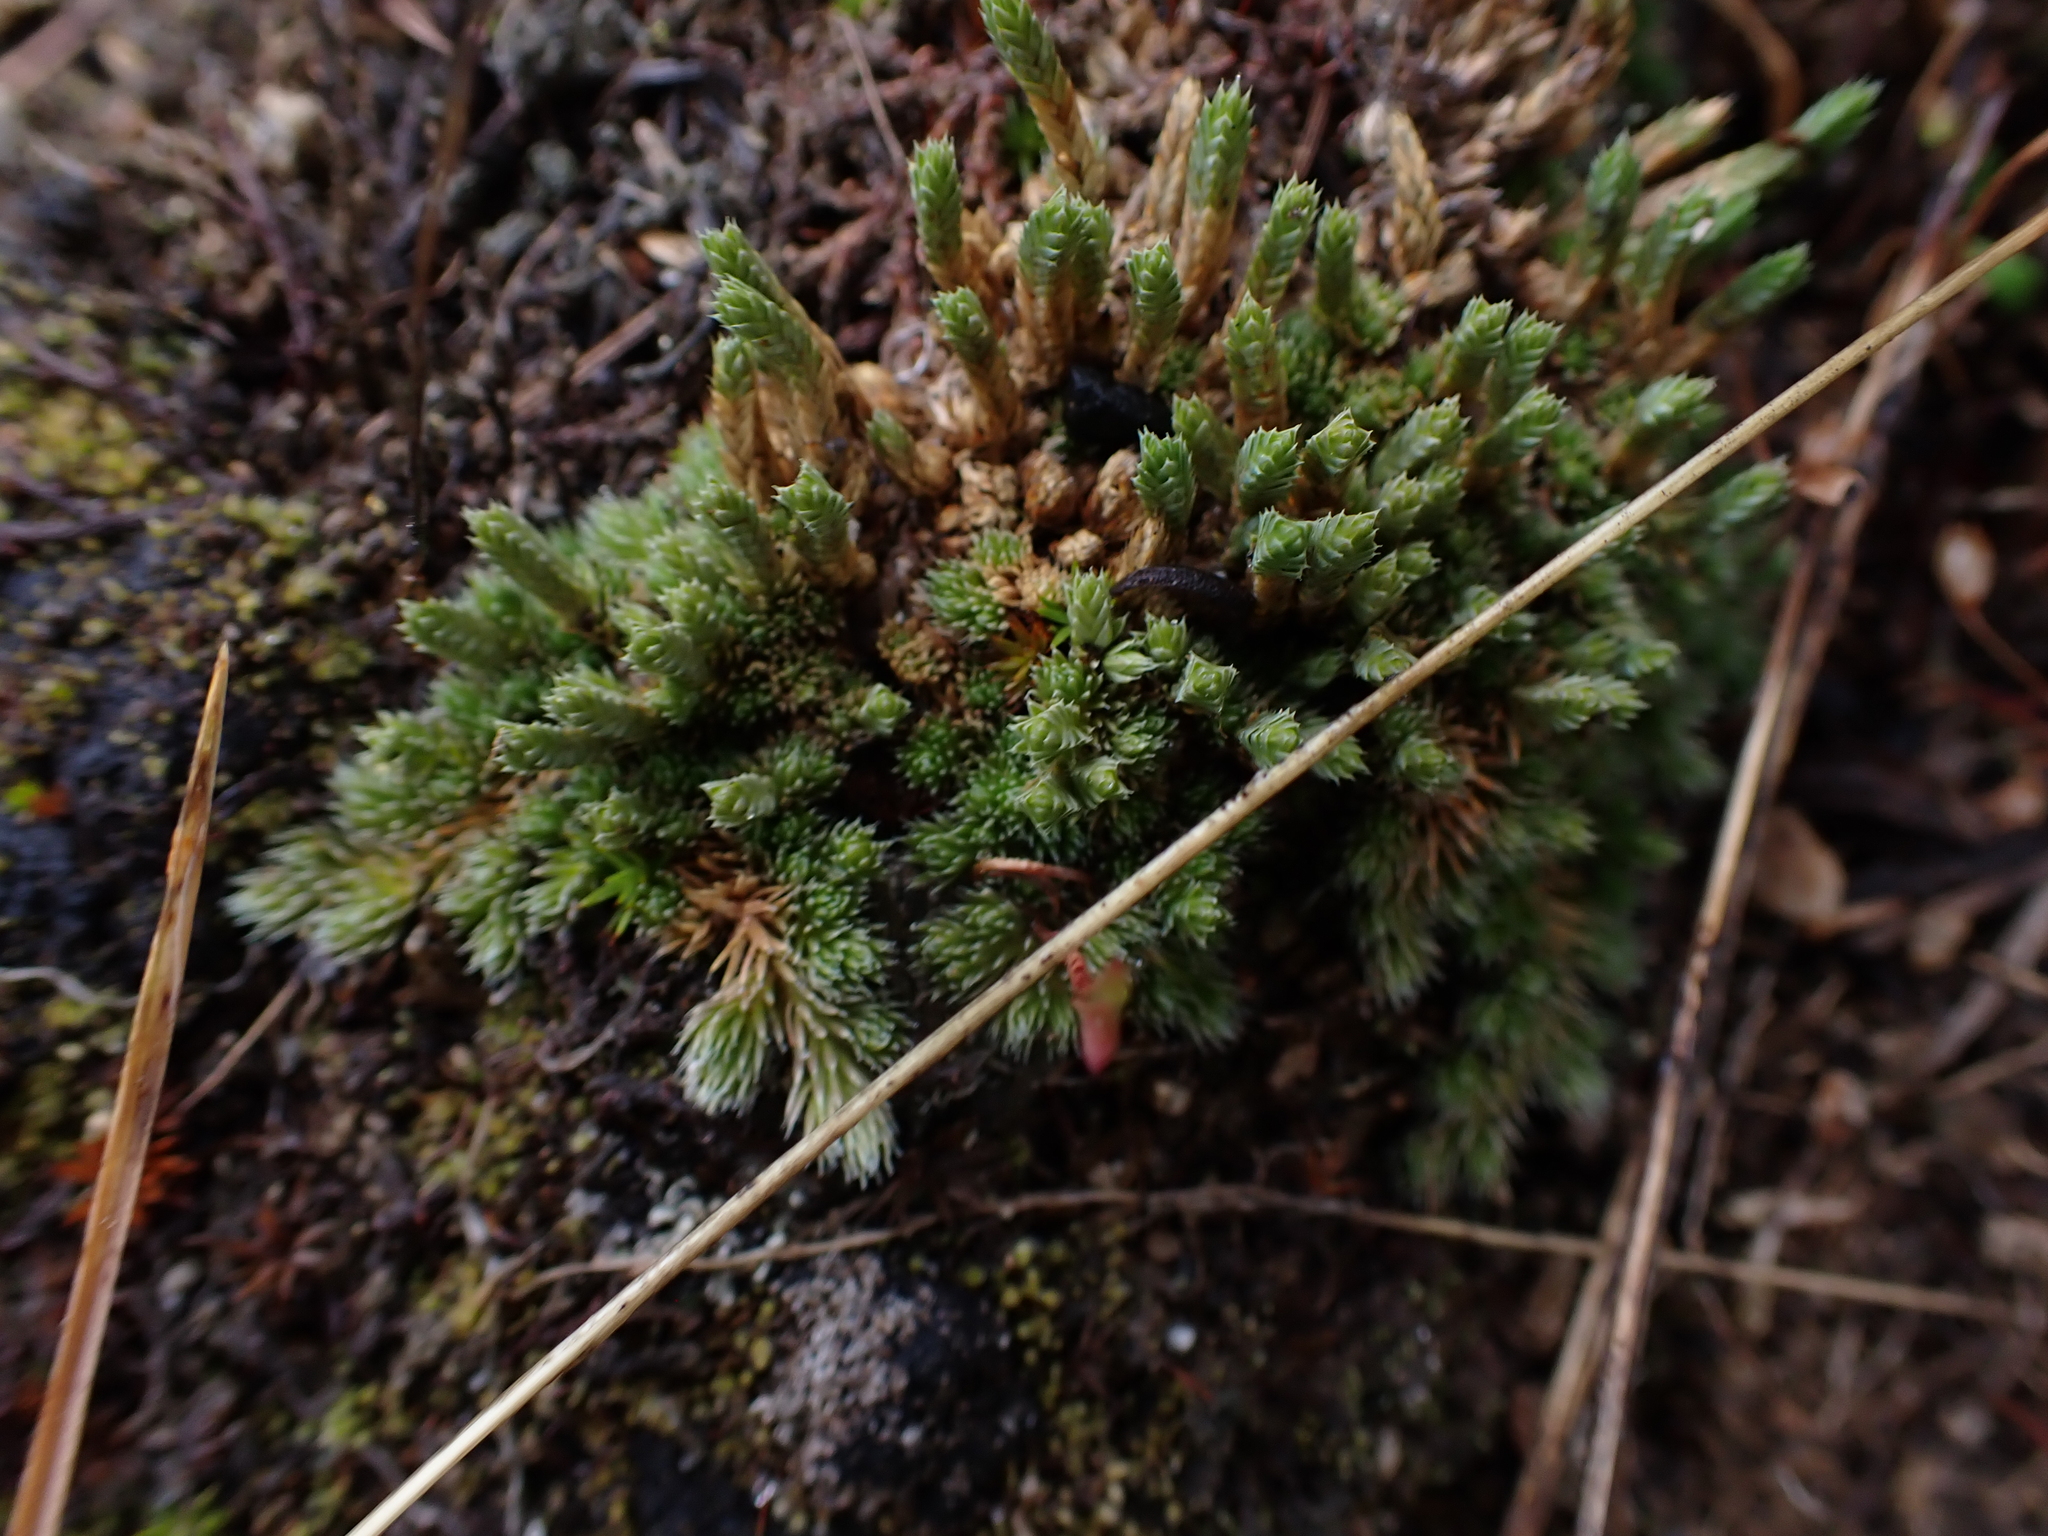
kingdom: Plantae
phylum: Tracheophyta
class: Lycopodiopsida
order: Selaginellales
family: Selaginellaceae
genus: Selaginella
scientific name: Selaginella densa
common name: Mountain spike-moss
